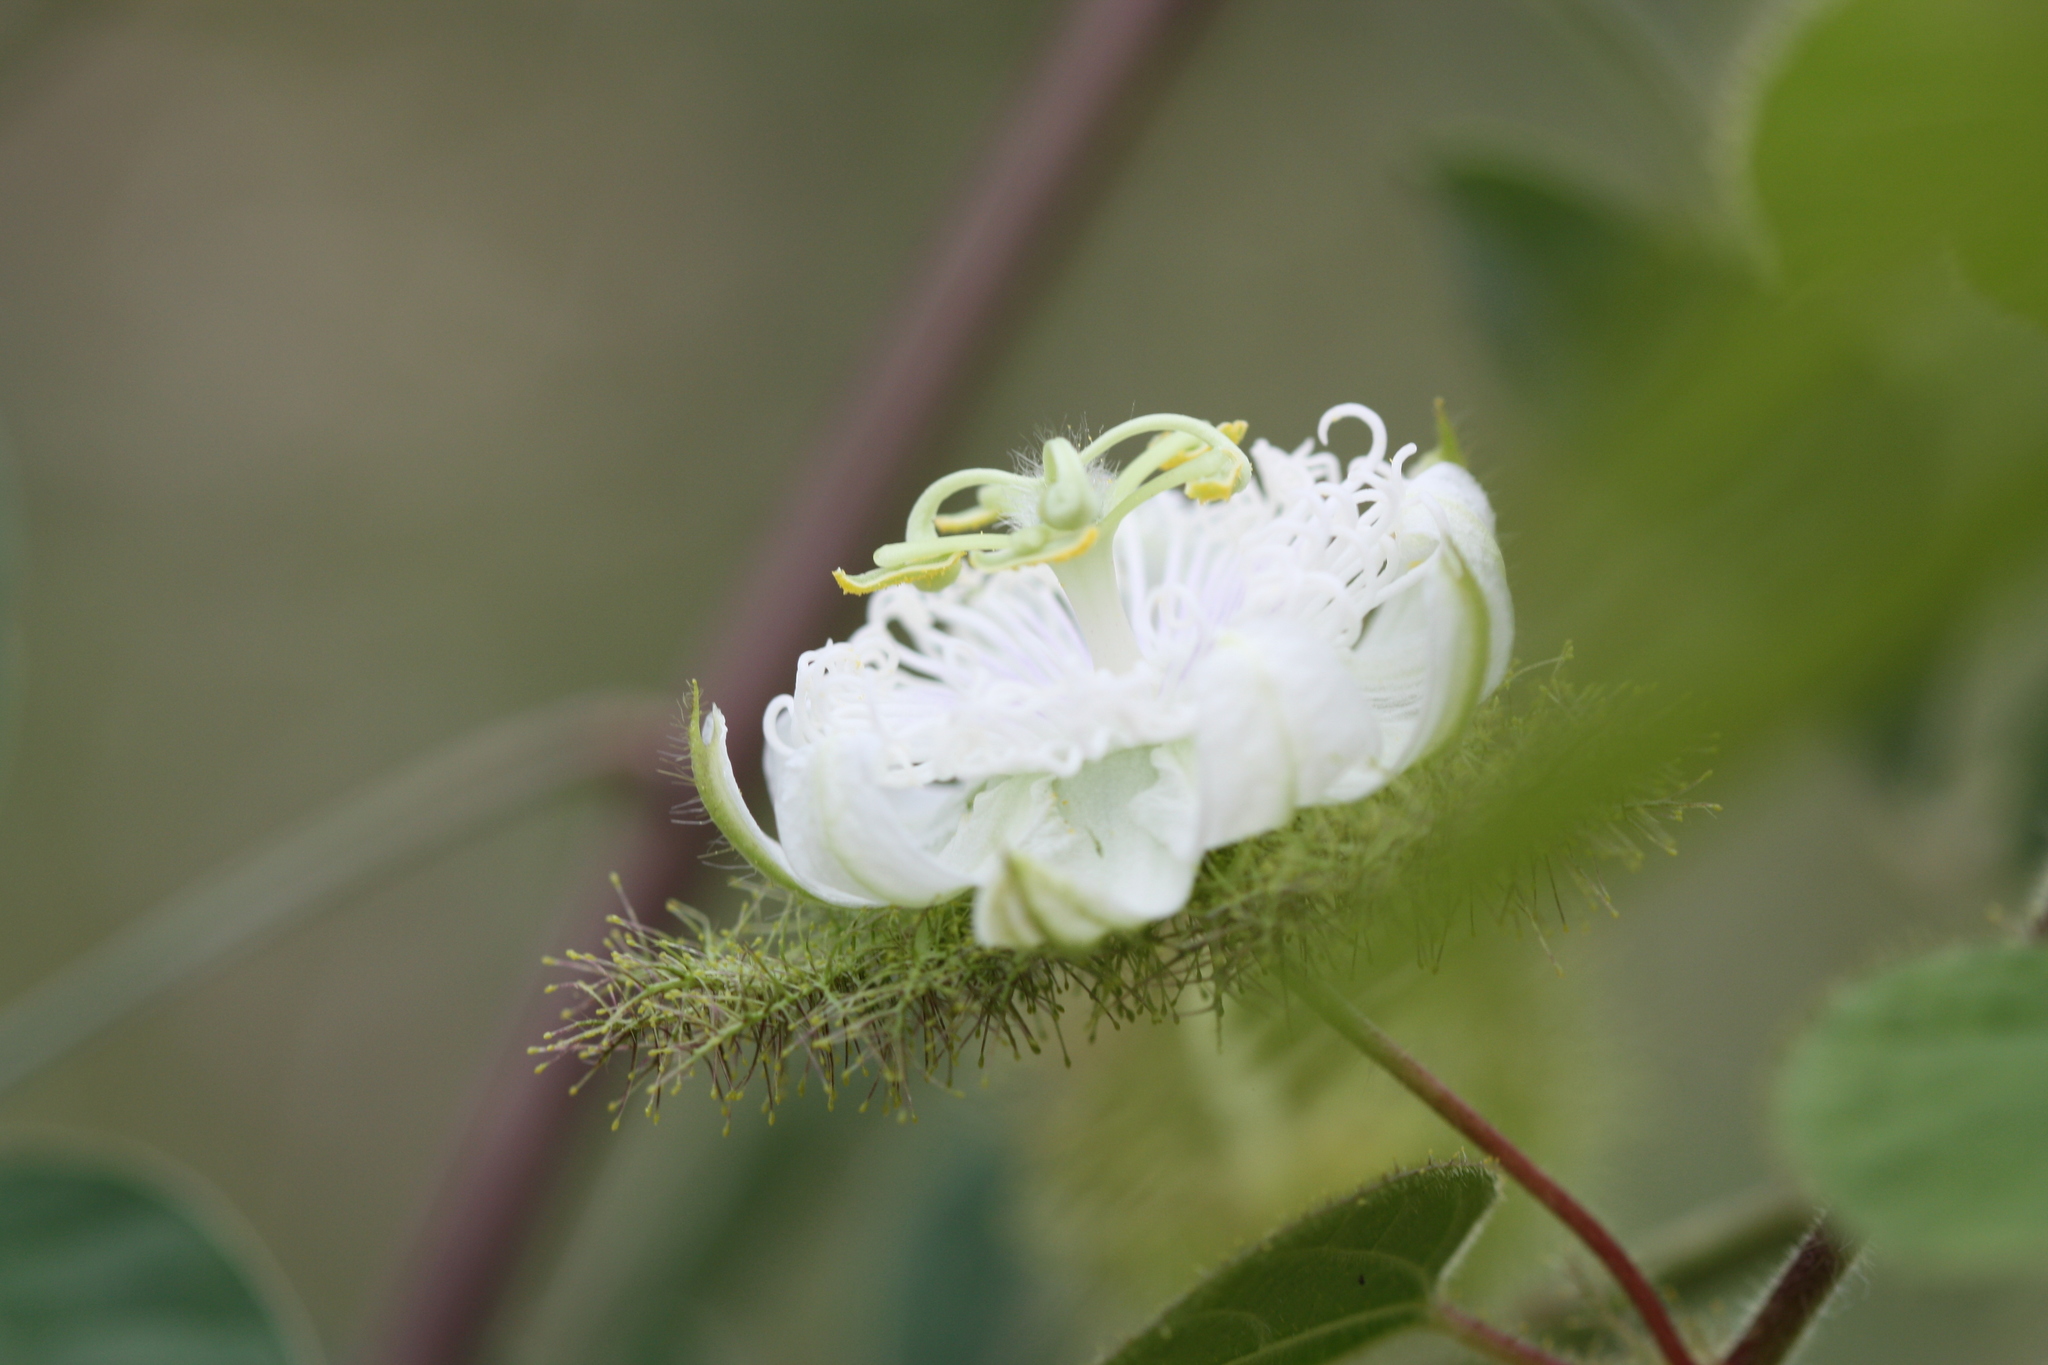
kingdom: Plantae
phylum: Tracheophyta
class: Magnoliopsida
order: Malpighiales
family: Passifloraceae
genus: Passiflora
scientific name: Passiflora foetida
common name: Fetid passionflower
